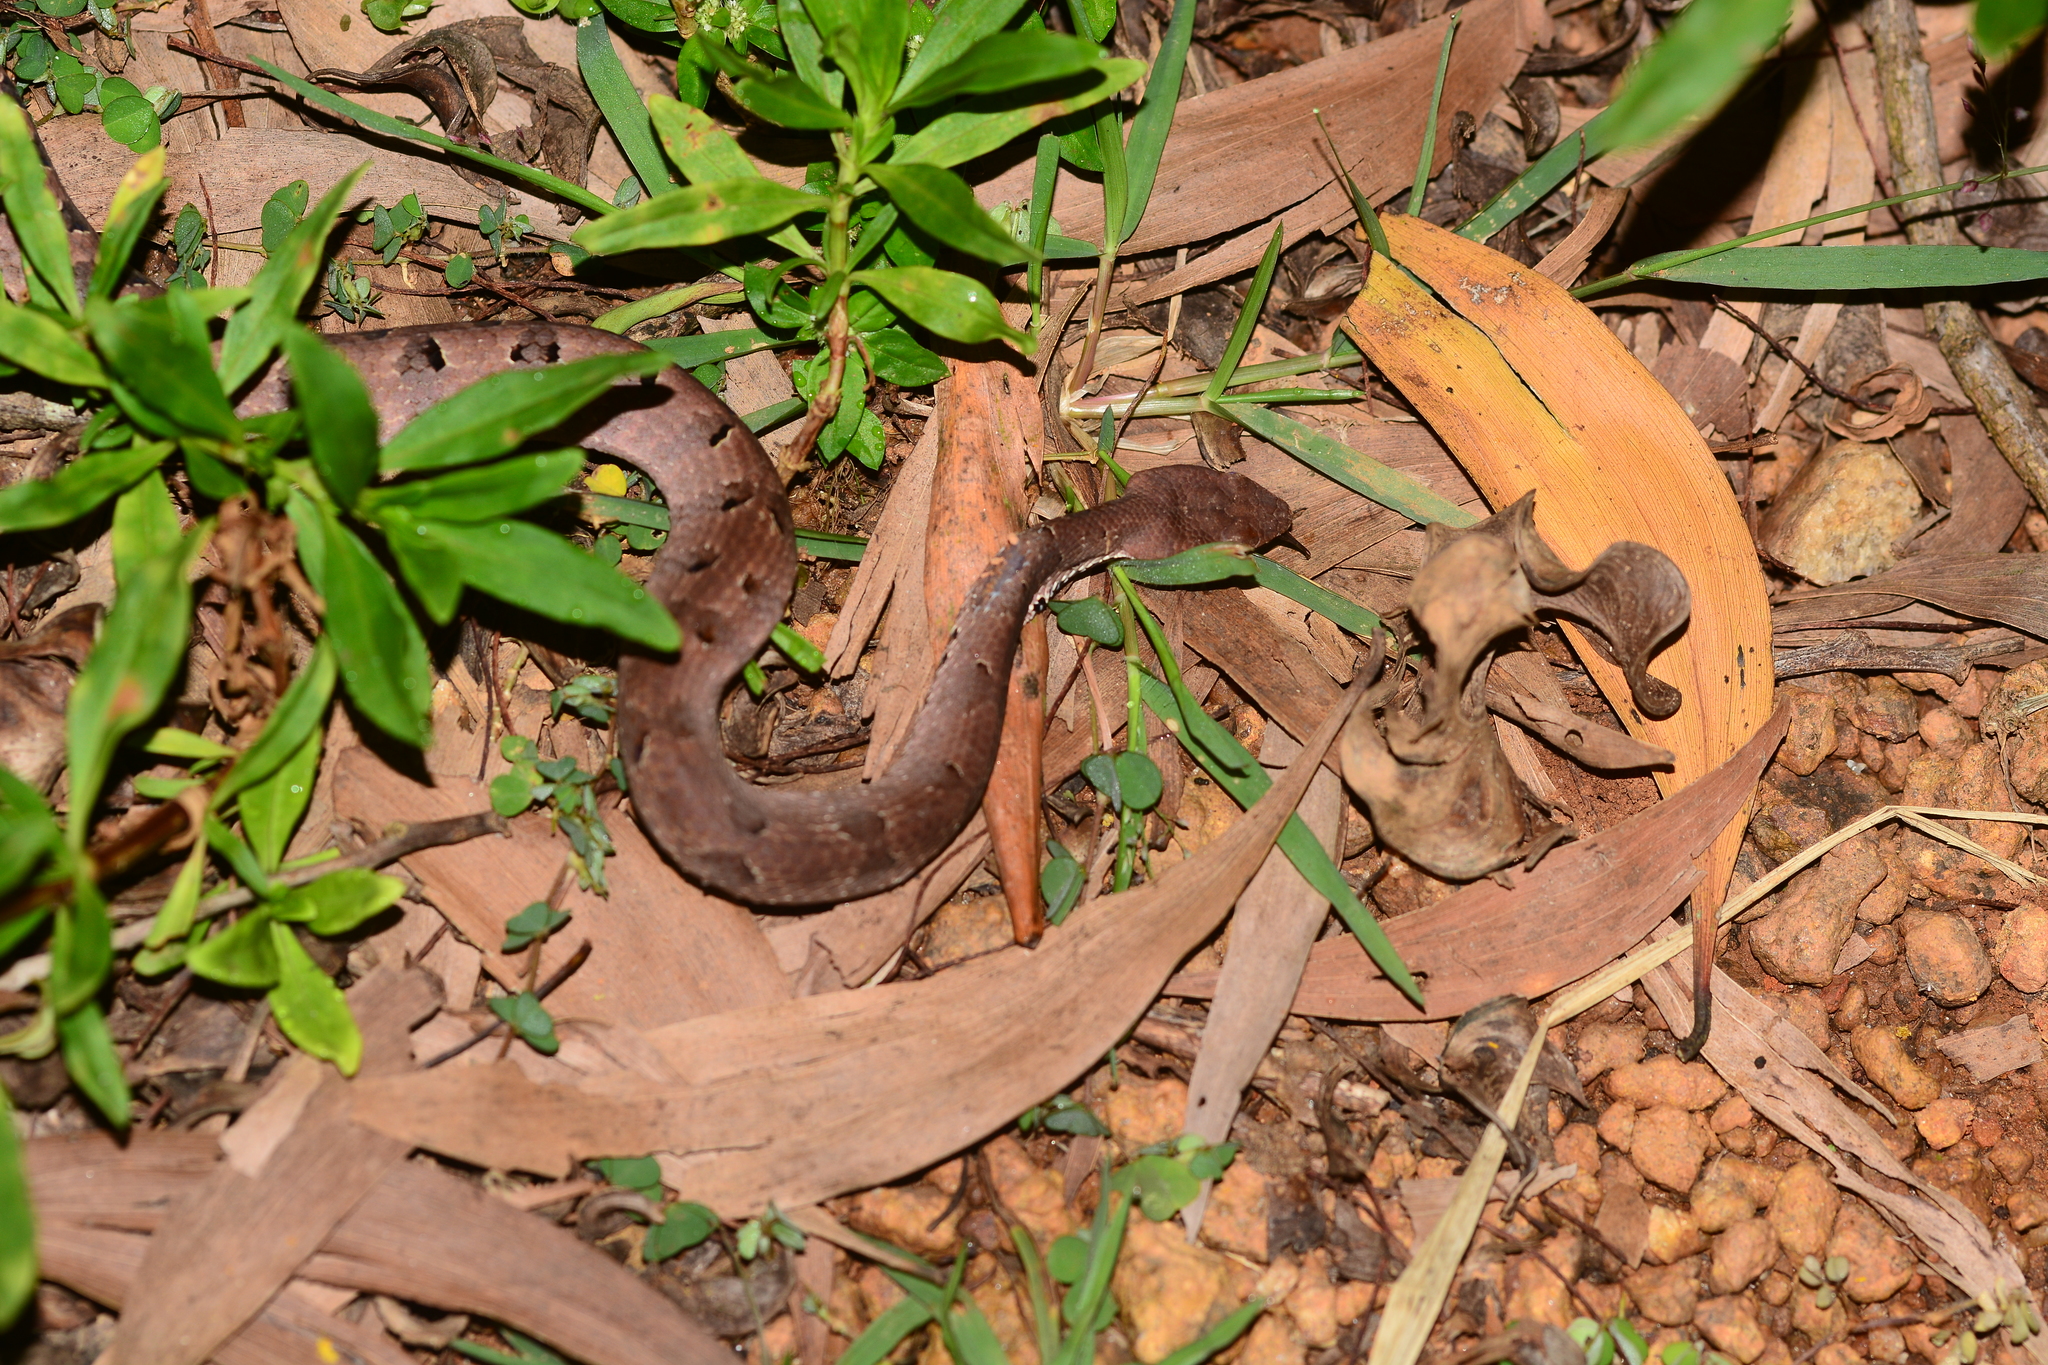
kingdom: Animalia
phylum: Chordata
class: Squamata
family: Viperidae
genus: Hypnale
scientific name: Hypnale hypnale
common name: Hump-nosed moccasin
